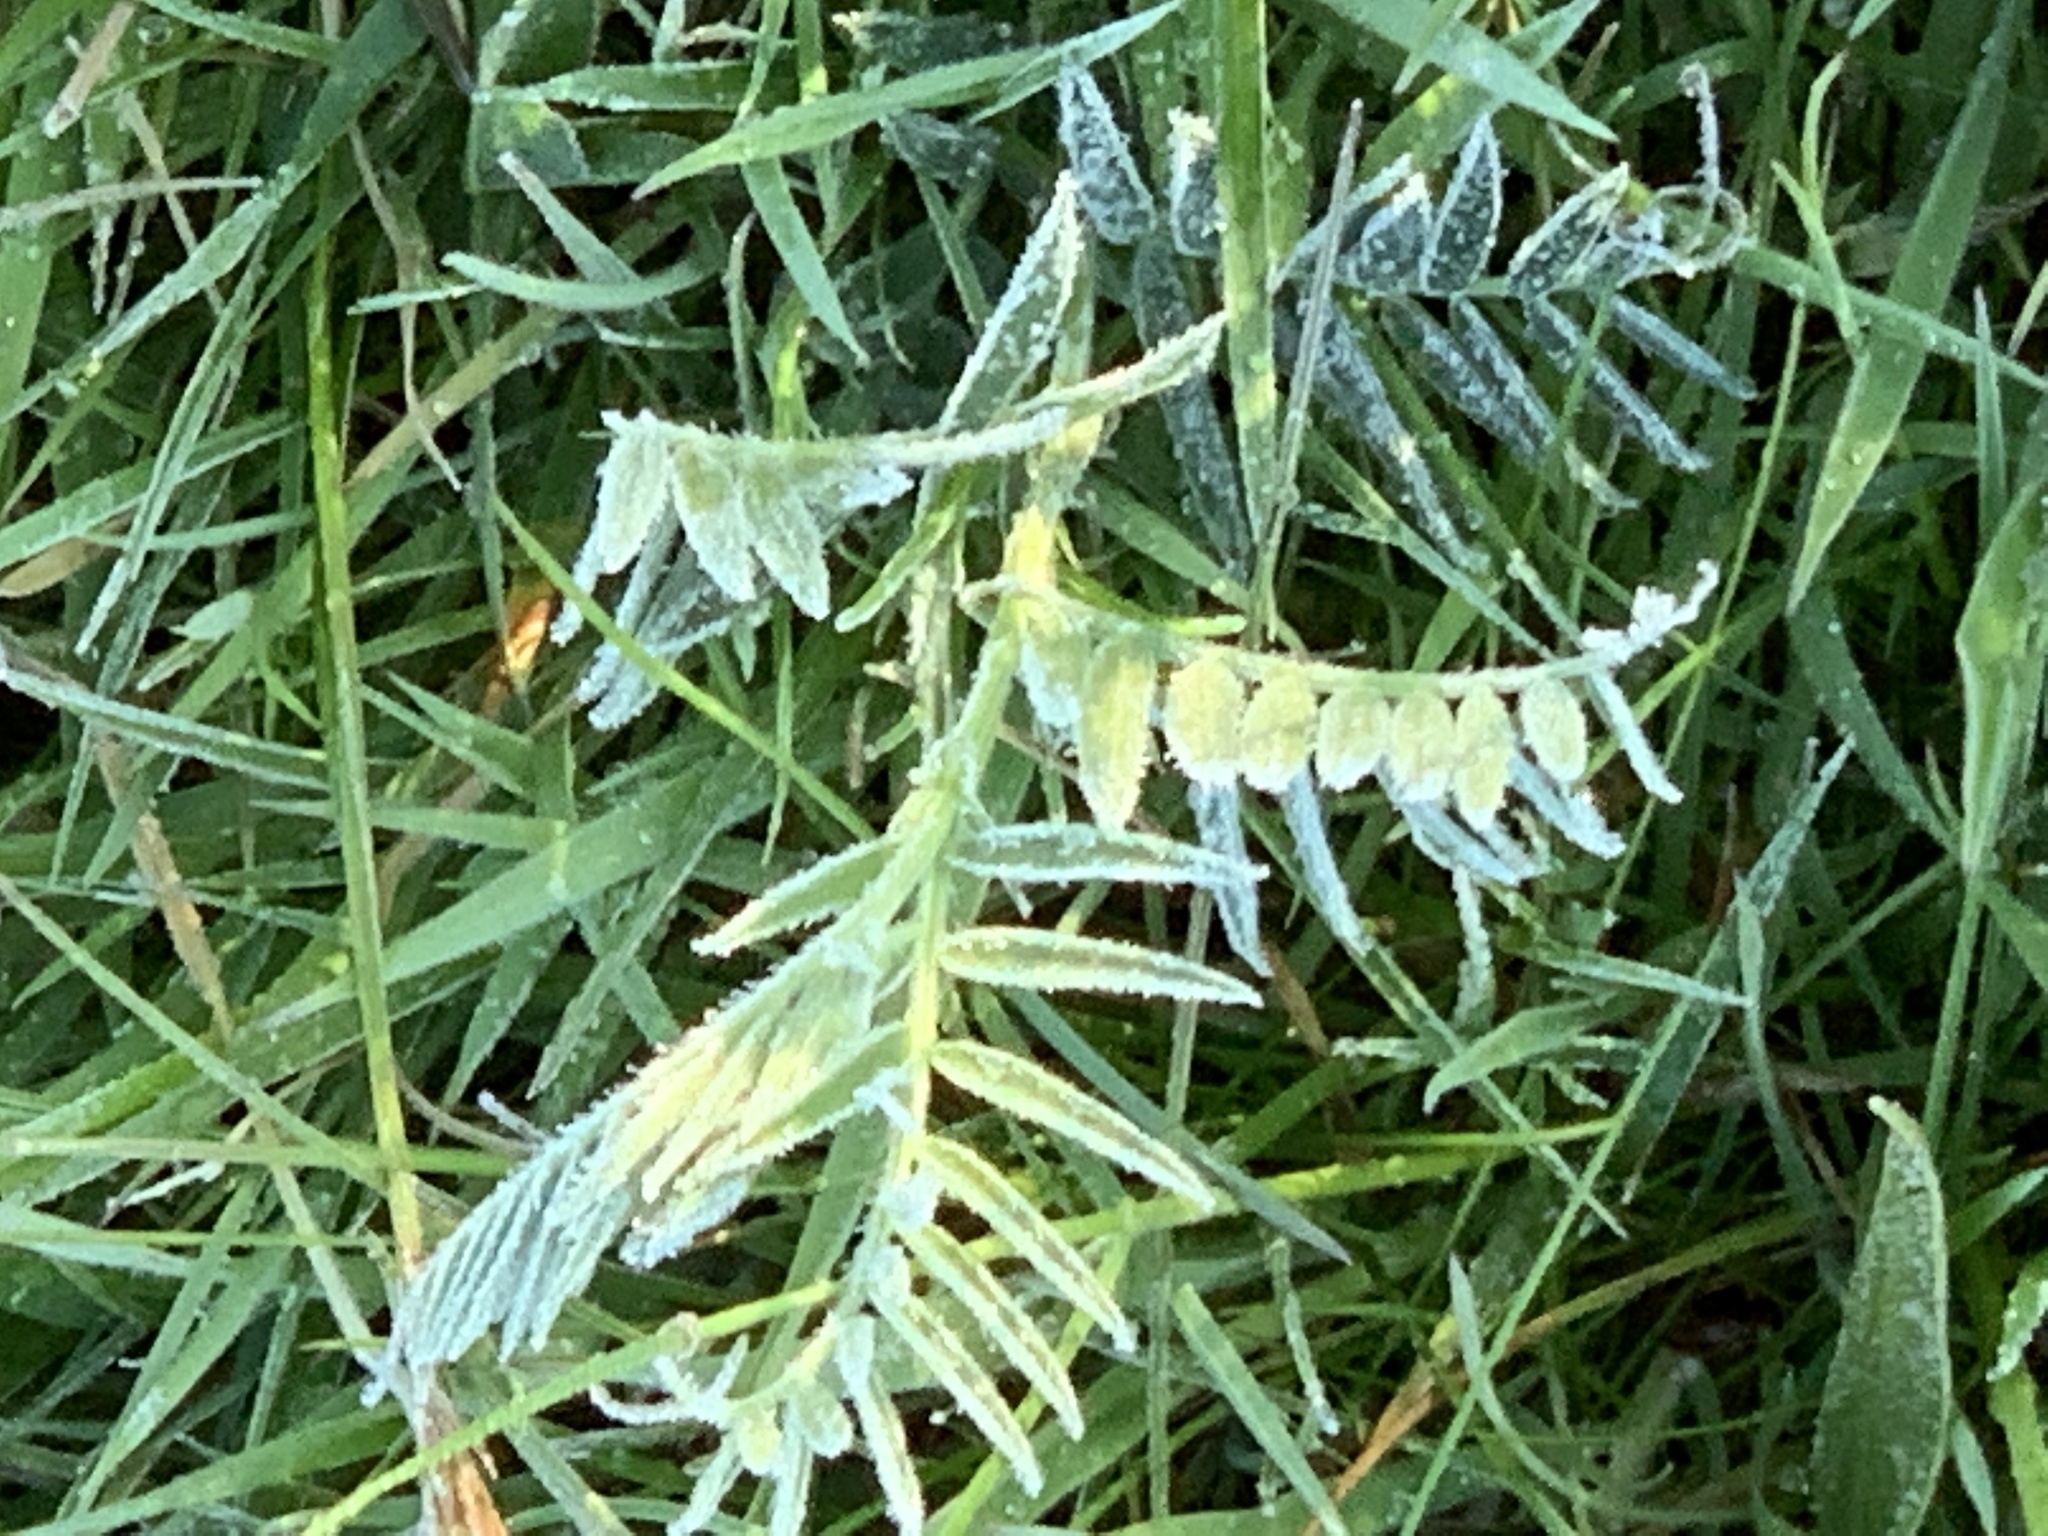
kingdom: Plantae
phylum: Tracheophyta
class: Magnoliopsida
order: Fabales
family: Fabaceae
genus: Vicia
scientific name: Vicia cracca
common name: Bird vetch
